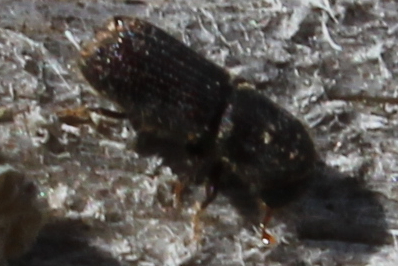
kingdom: Animalia
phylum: Arthropoda
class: Insecta
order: Coleoptera
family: Curculionidae
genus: Orthotomicus
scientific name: Orthotomicus caelatus
